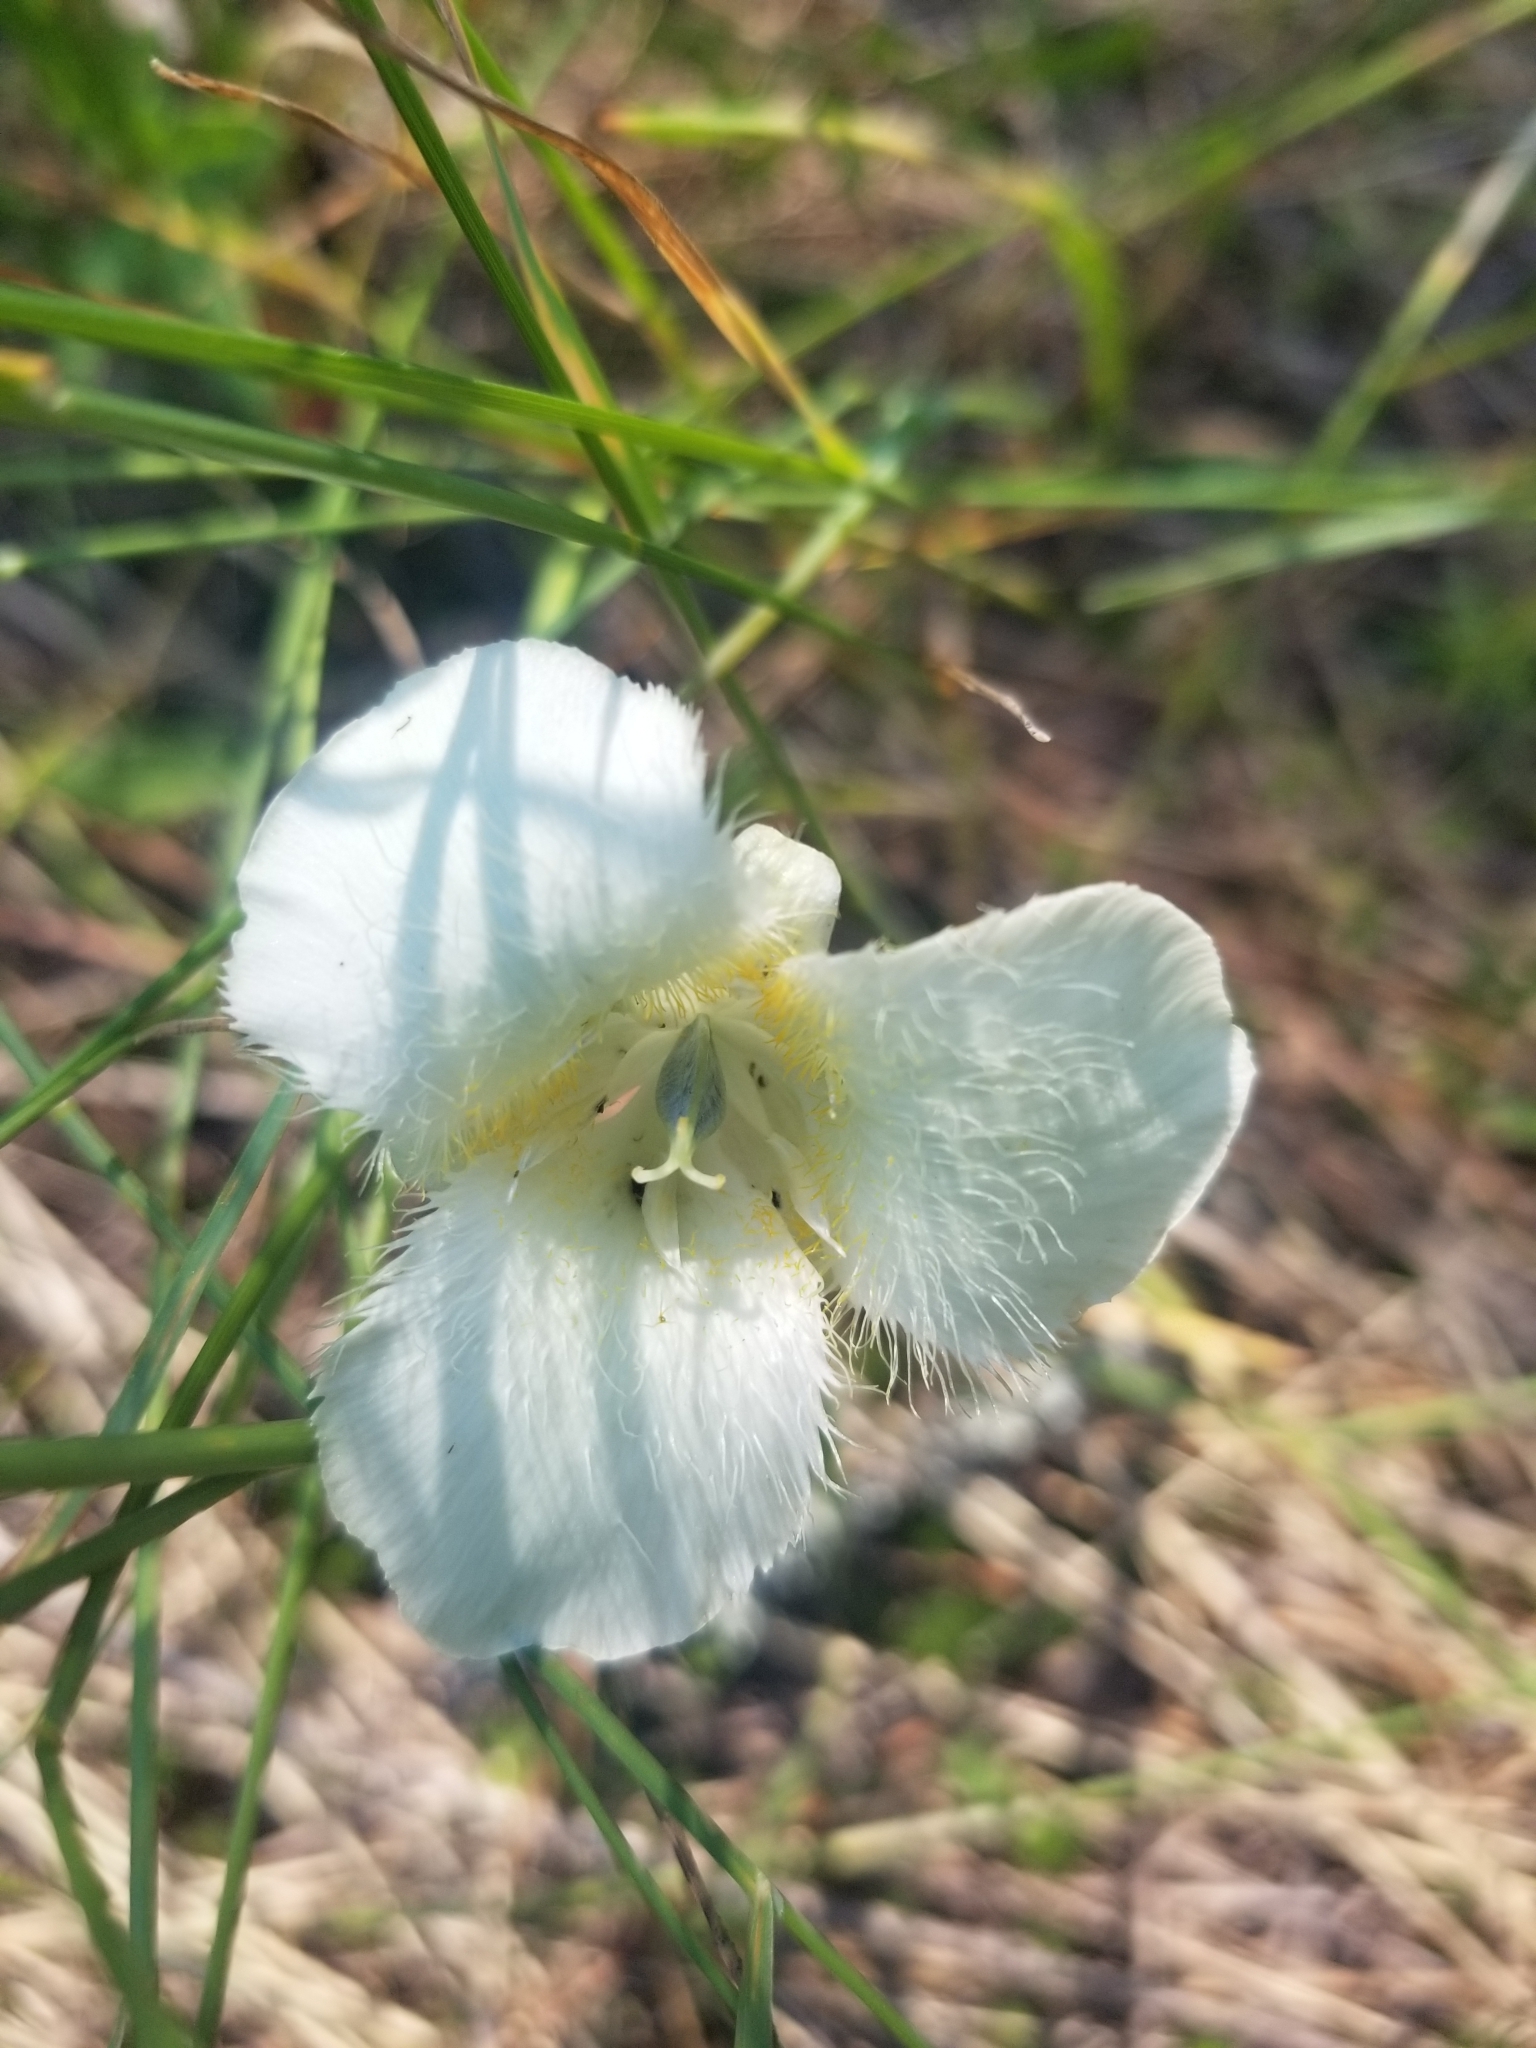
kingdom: Plantae
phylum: Tracheophyta
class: Liliopsida
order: Liliales
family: Liliaceae
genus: Calochortus
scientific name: Calochortus apiculatus
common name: Baker's mariposa lily
